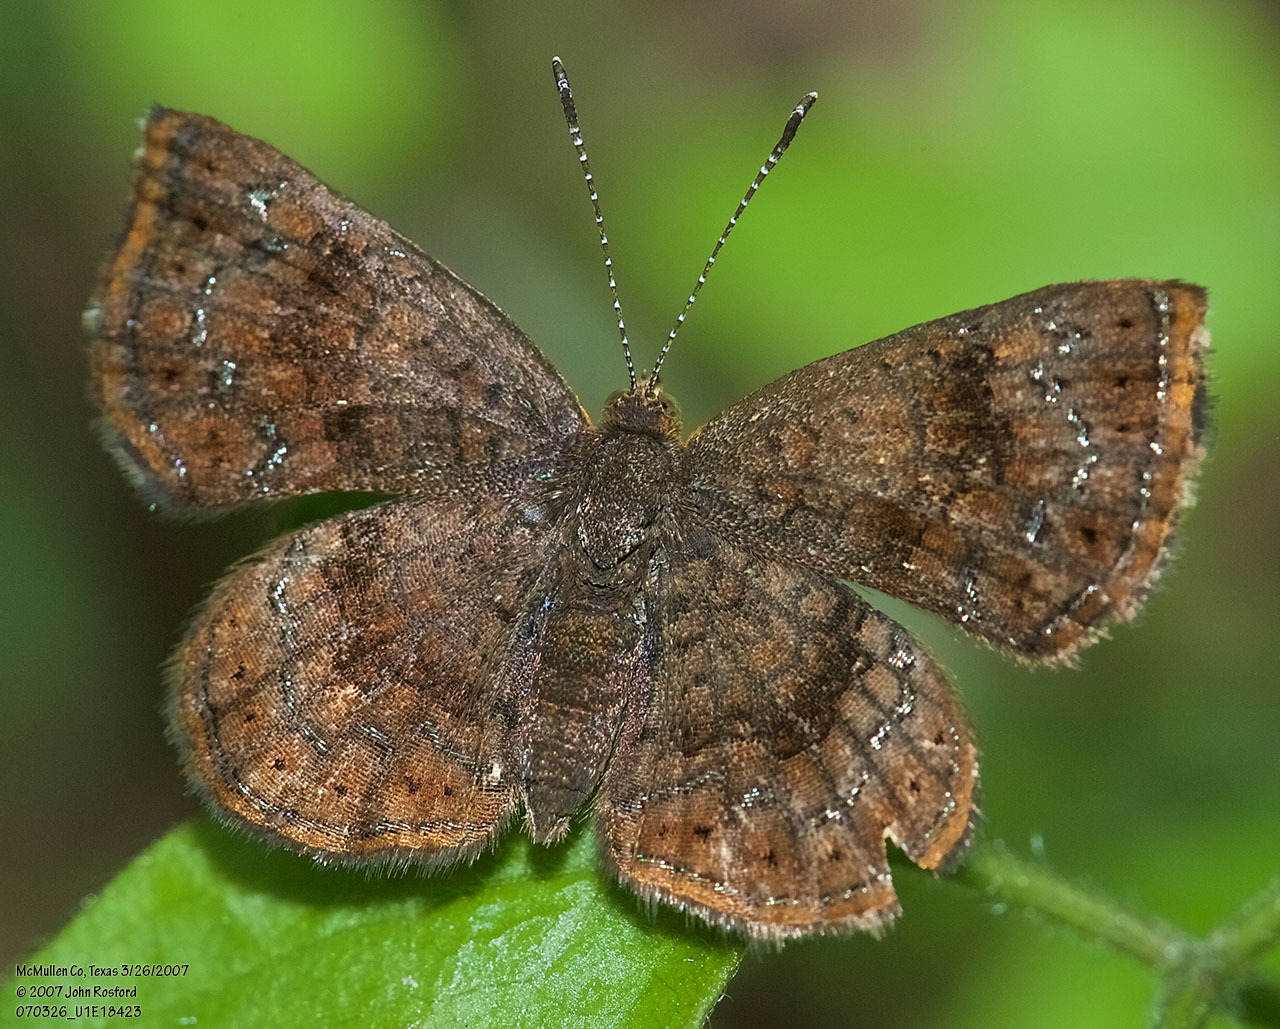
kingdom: Animalia
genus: Calephelis
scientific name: Calephelis perditalis
